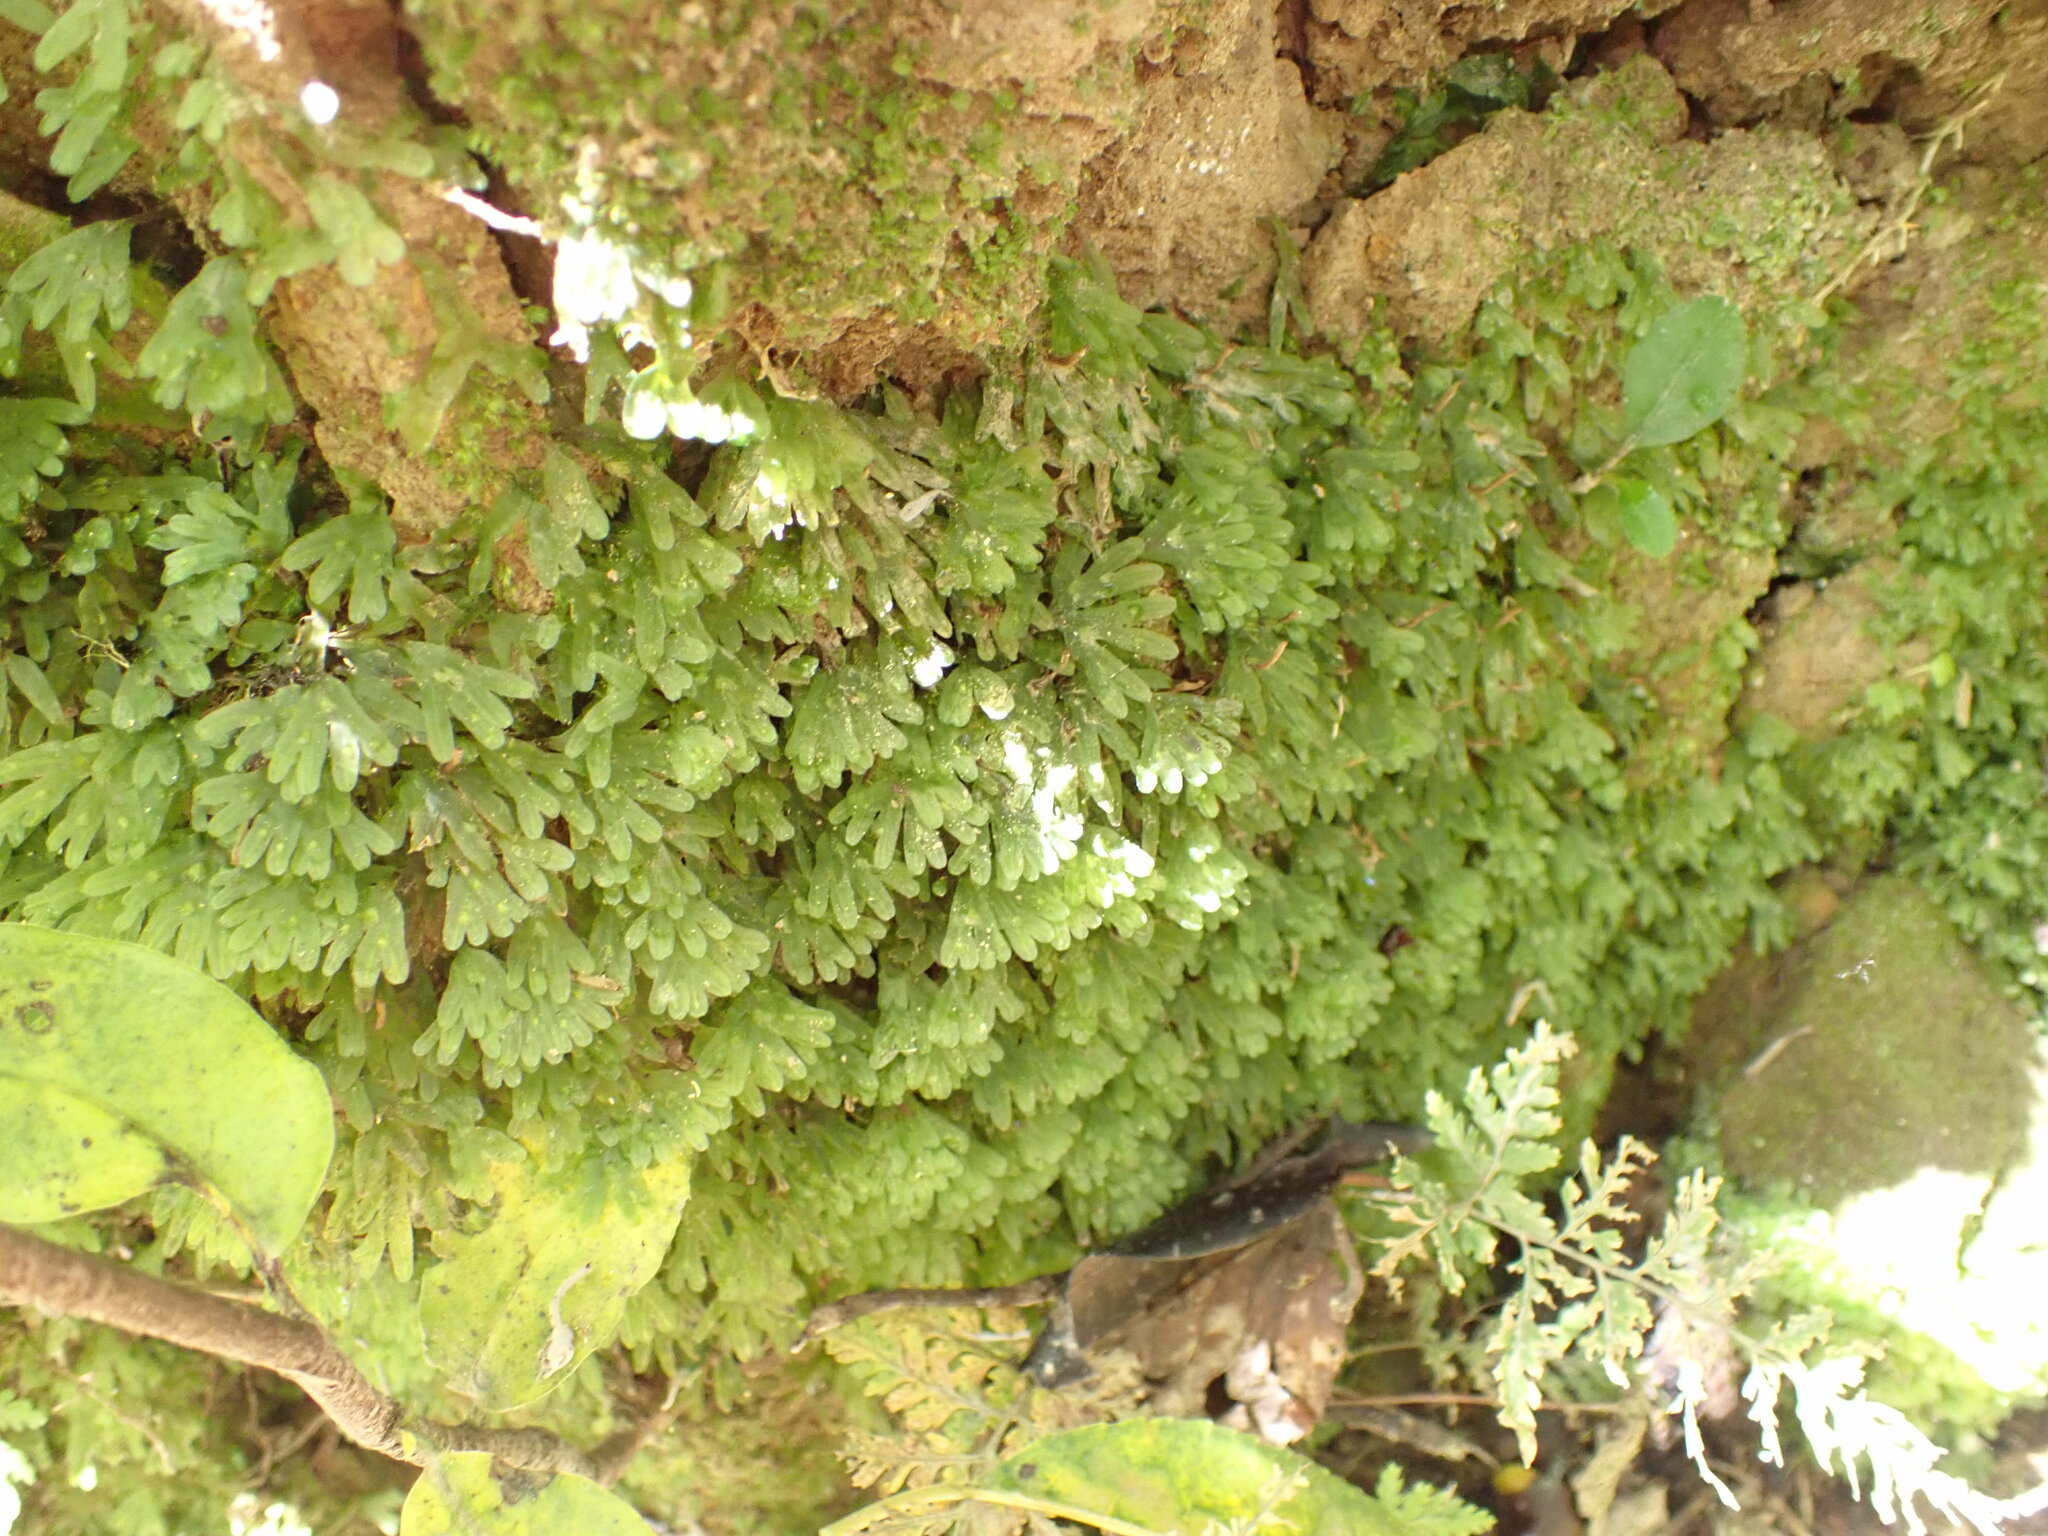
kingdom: Plantae
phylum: Marchantiophyta
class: Jungermanniopsida
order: Pallaviciniales
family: Pallaviciniaceae
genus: Symphyogyna
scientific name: Symphyogyna hymenophyllum
